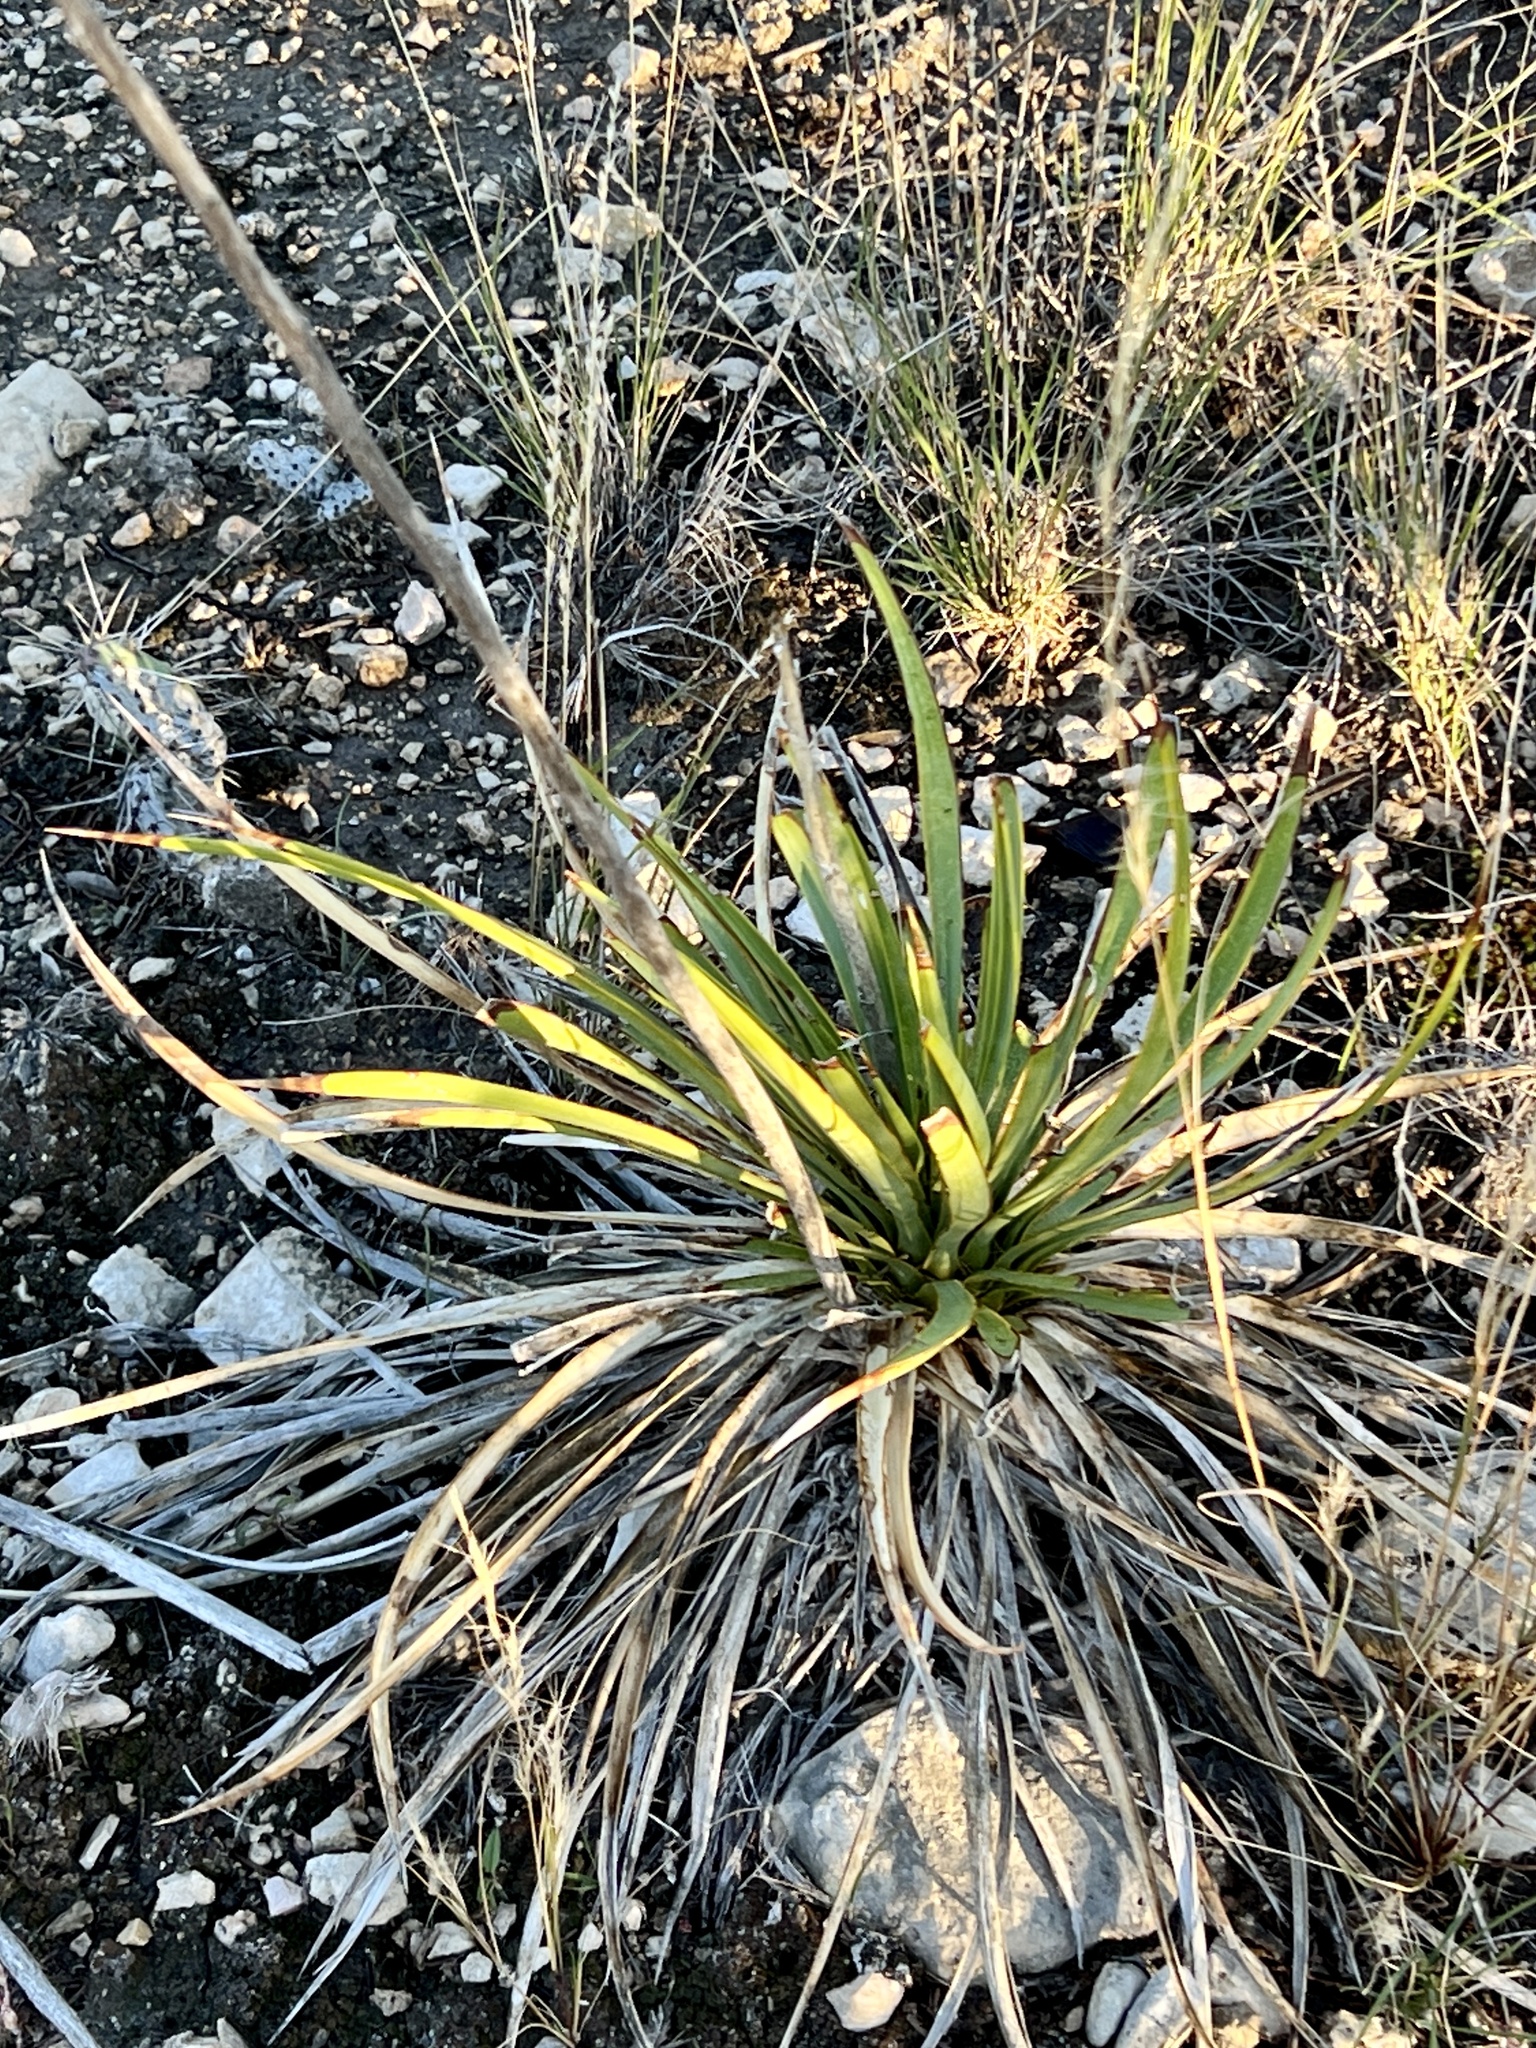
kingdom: Plantae
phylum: Tracheophyta
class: Liliopsida
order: Asparagales
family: Asparagaceae
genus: Yucca
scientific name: Yucca reverchonii
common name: San angelo yucca
